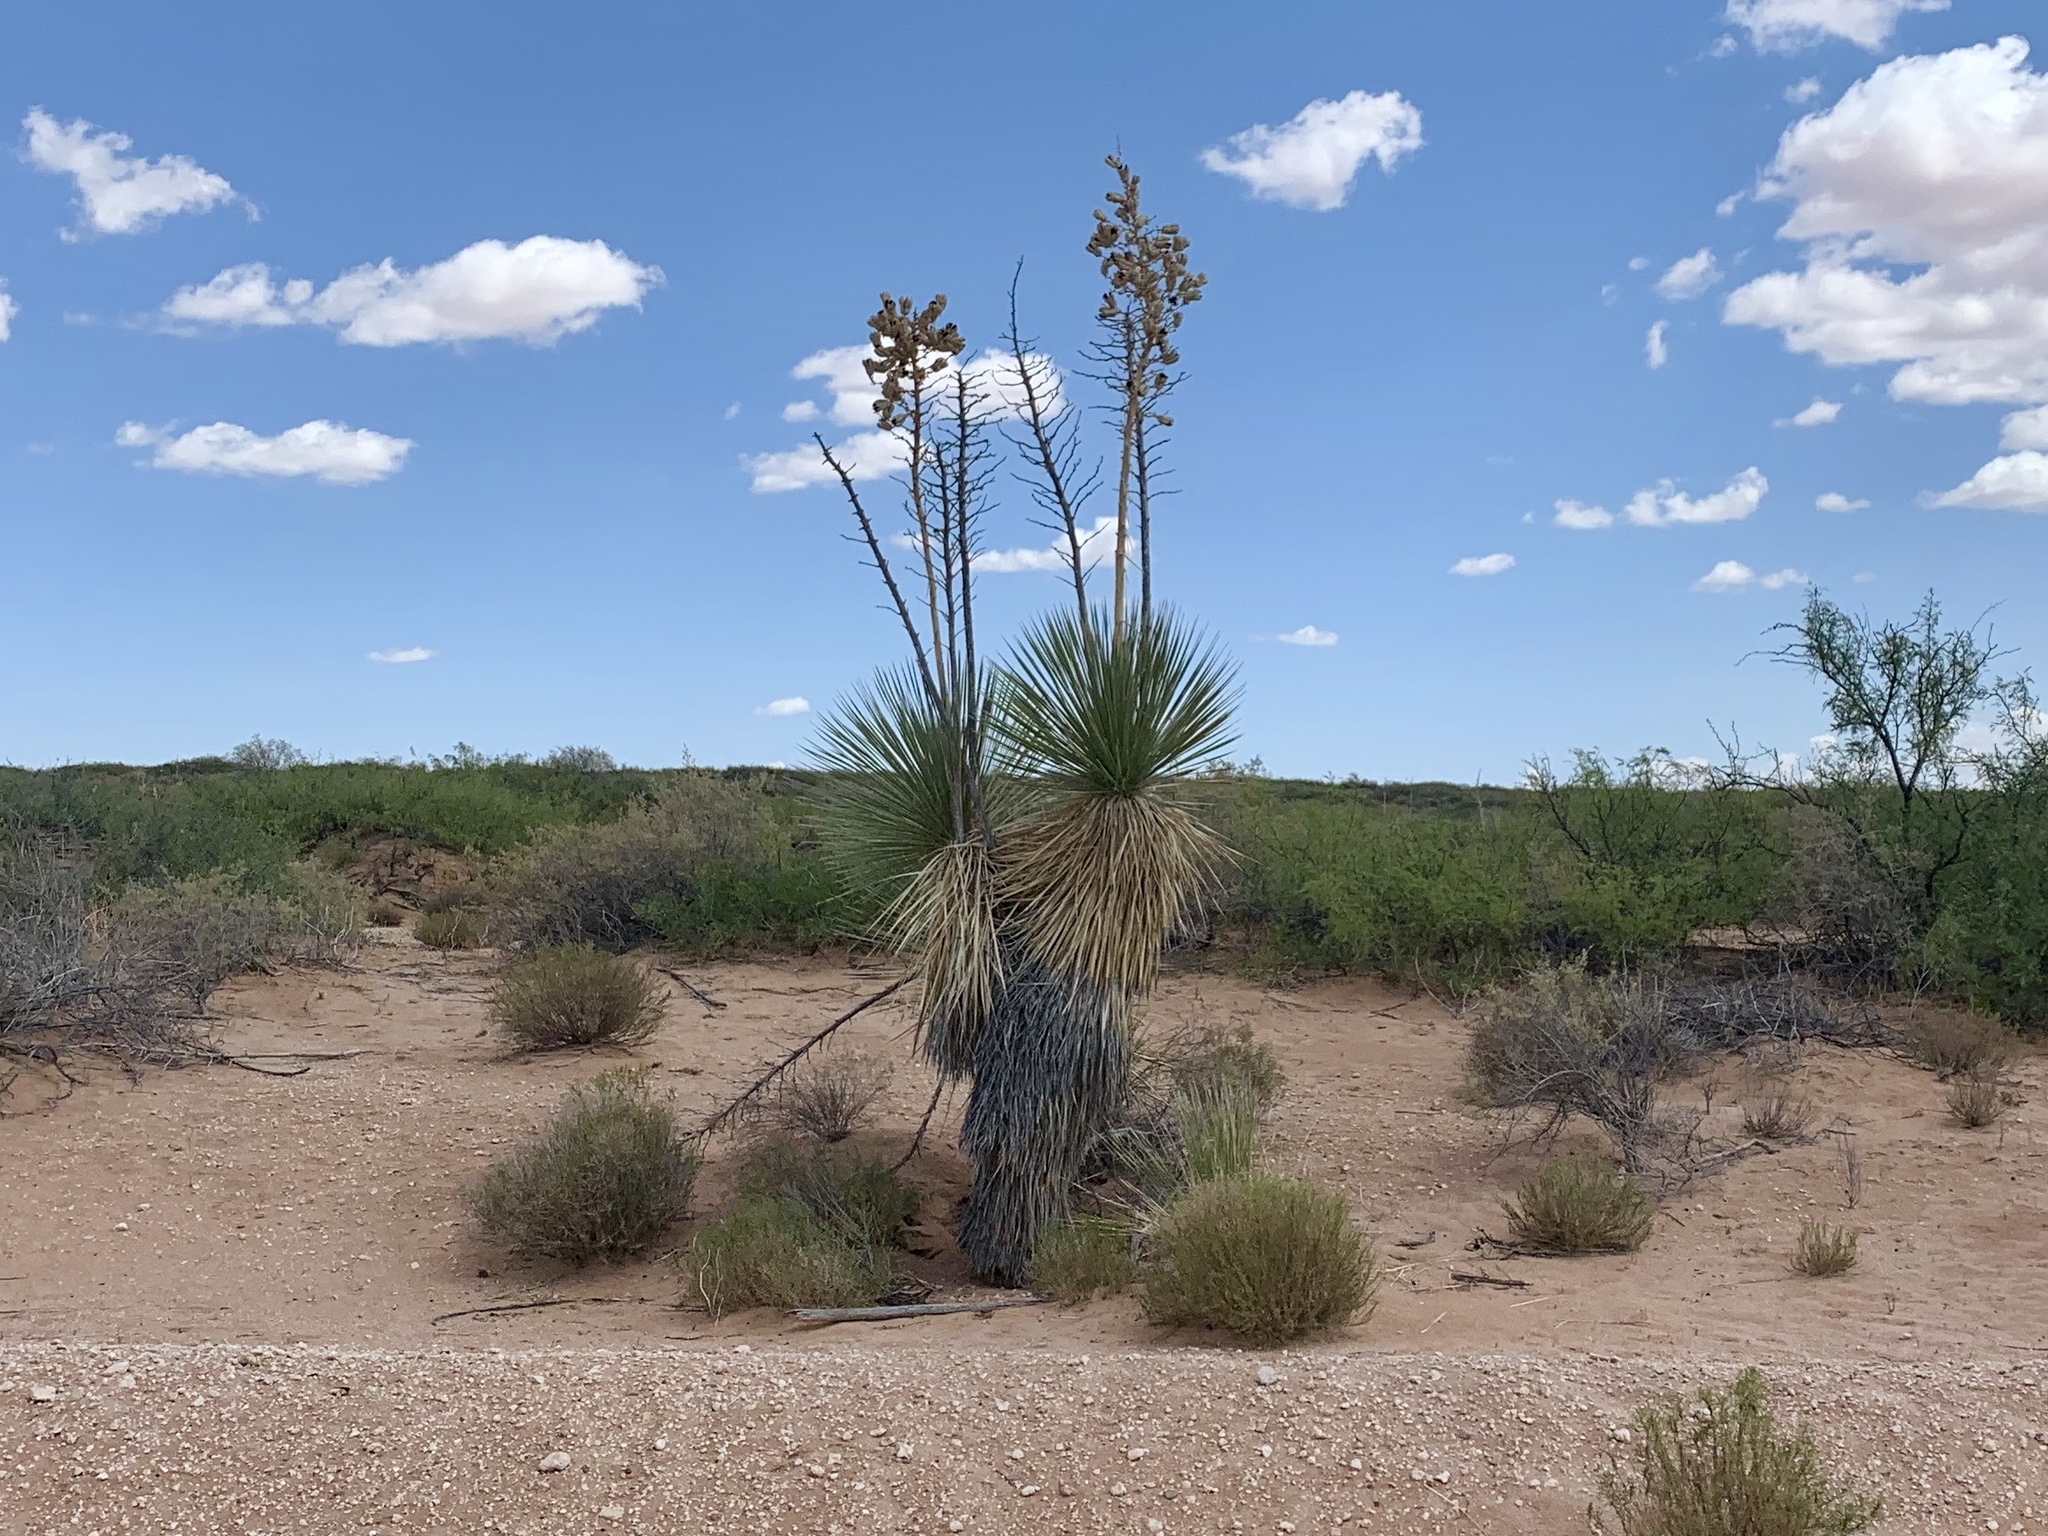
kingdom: Plantae
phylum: Tracheophyta
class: Liliopsida
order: Asparagales
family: Asparagaceae
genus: Yucca
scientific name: Yucca elata
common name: Palmella
